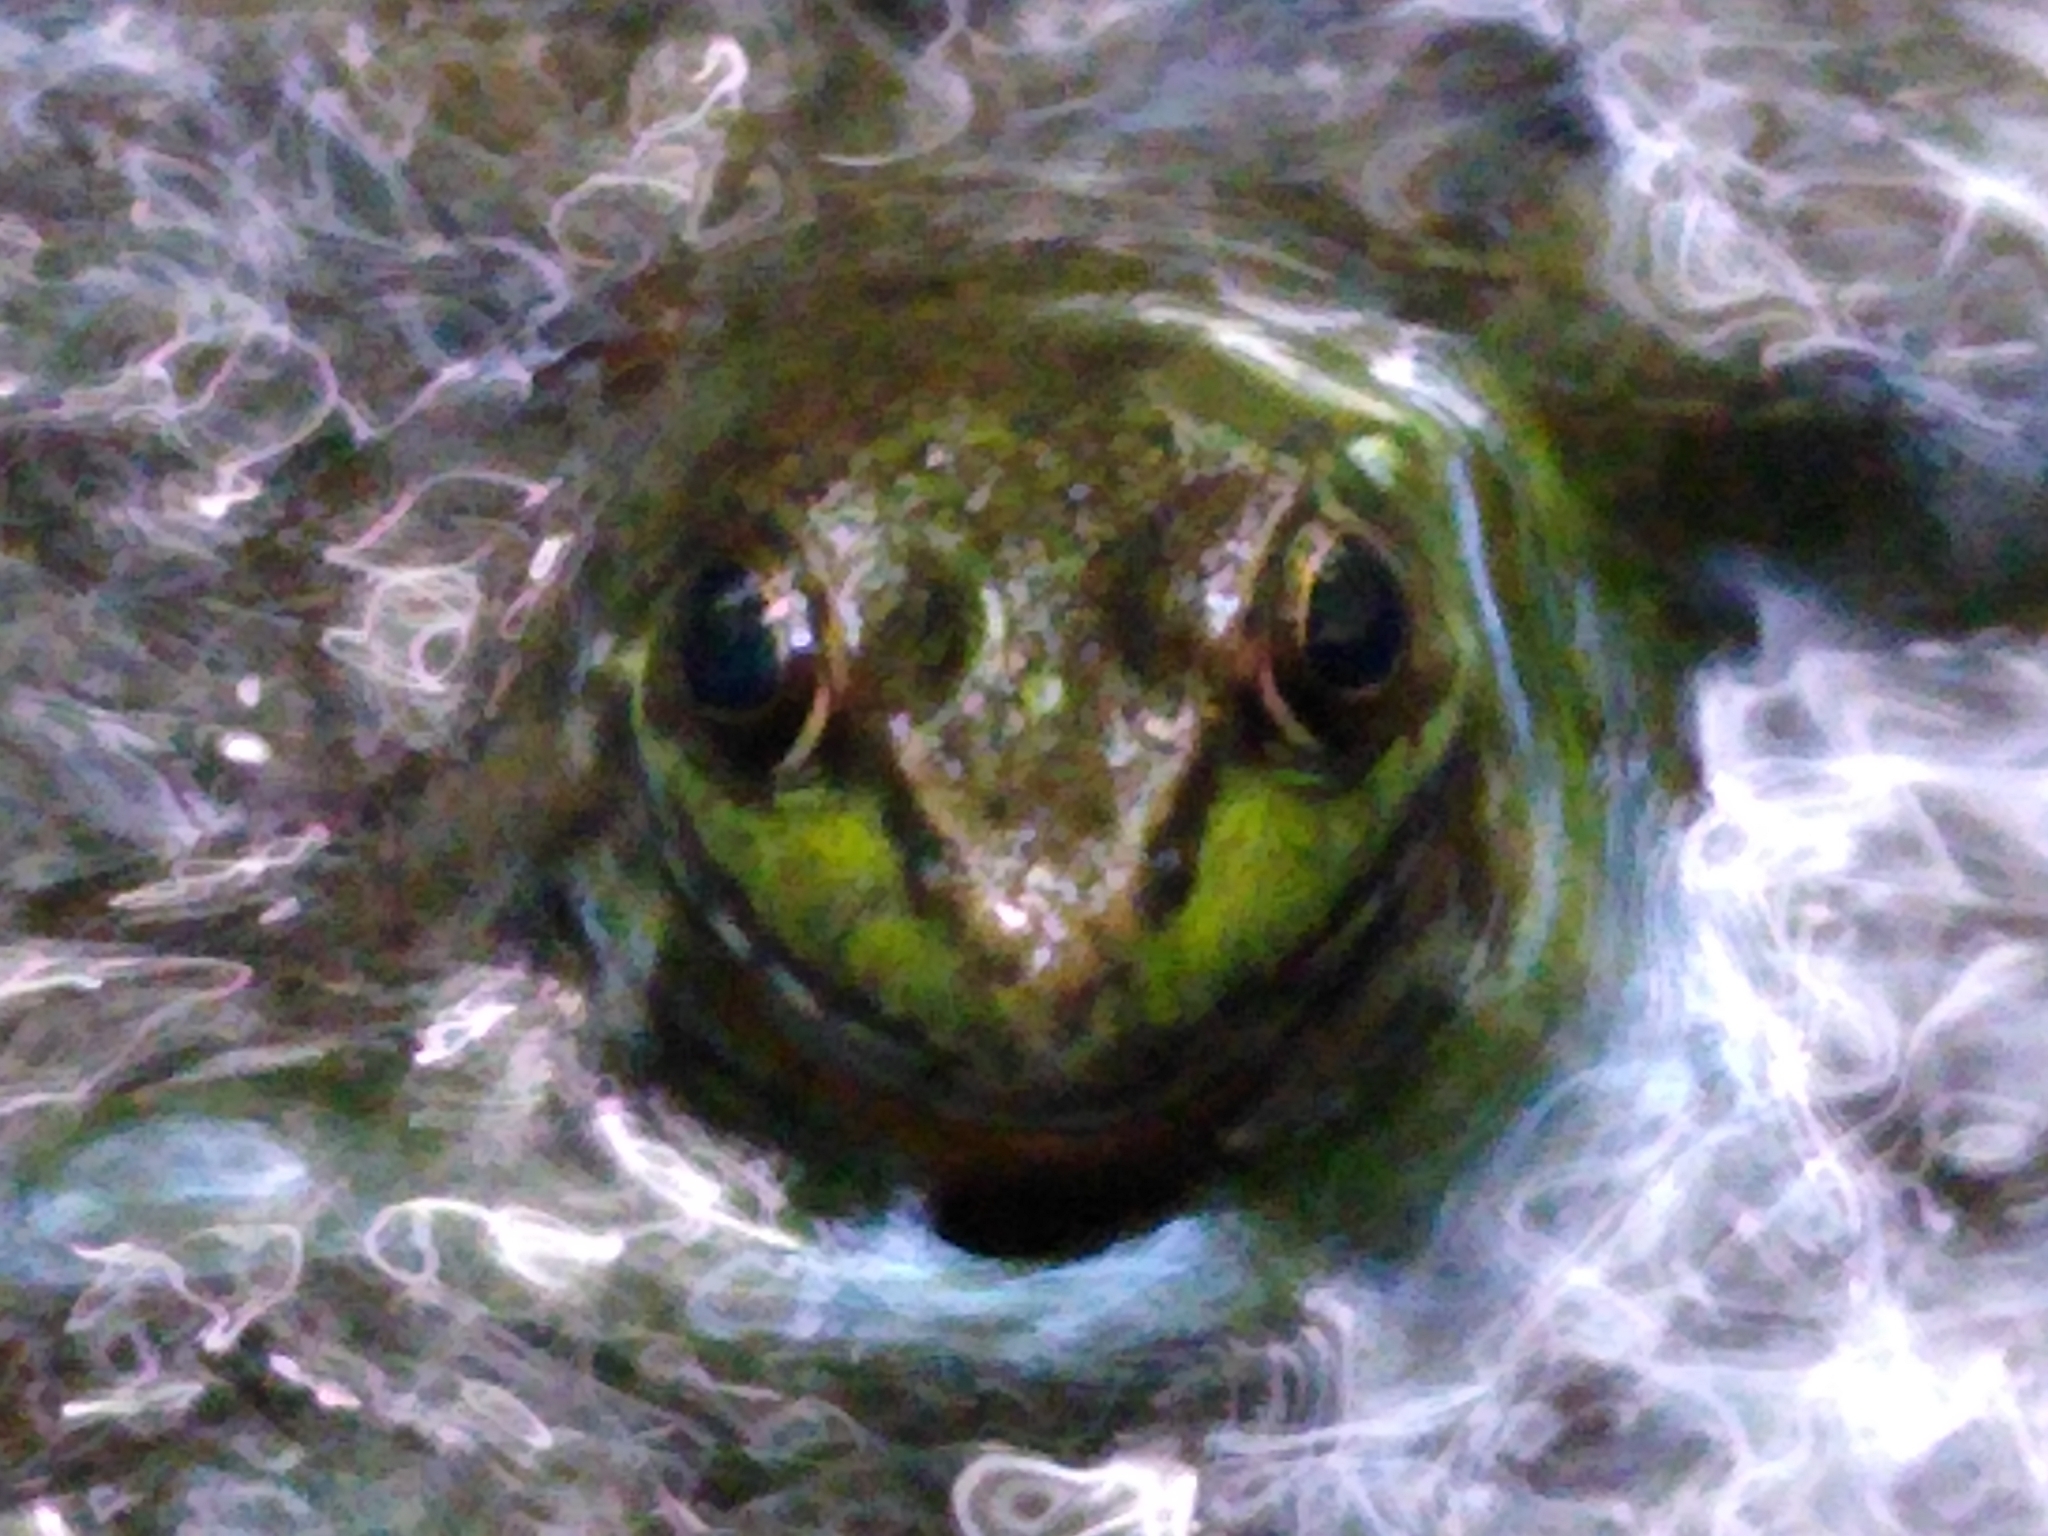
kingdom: Animalia
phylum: Chordata
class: Amphibia
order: Anura
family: Ranidae
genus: Lithobates
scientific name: Lithobates clamitans
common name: Green frog
